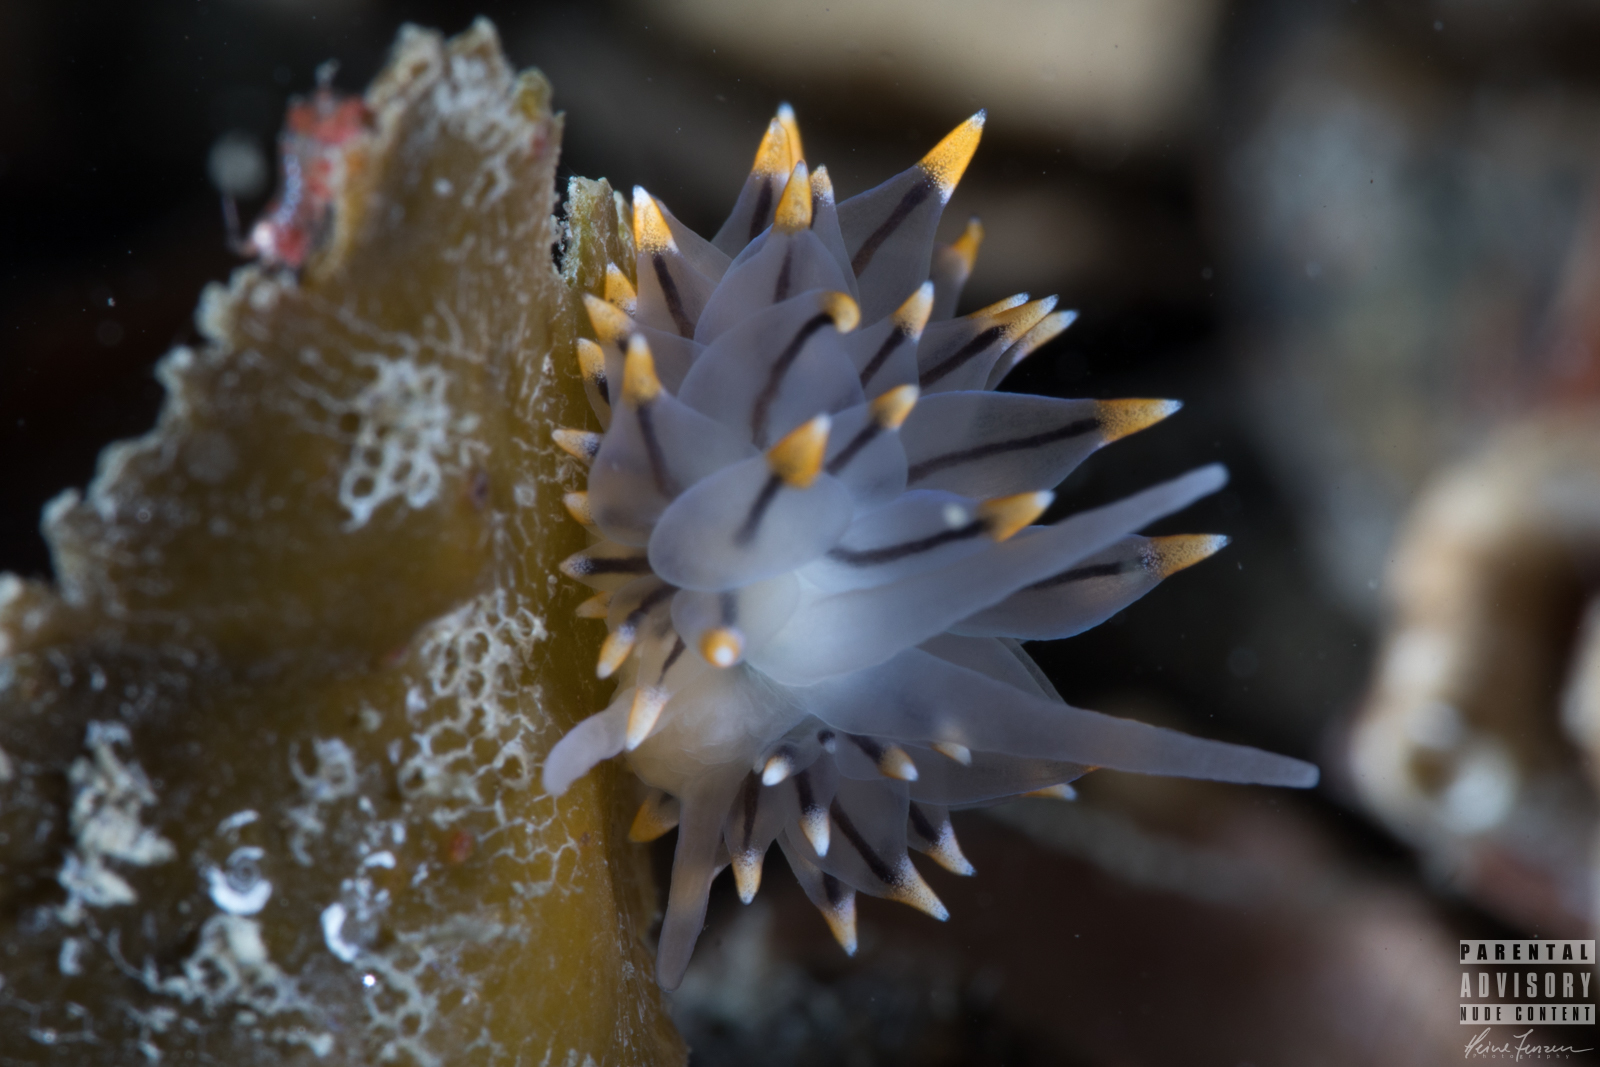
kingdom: Animalia
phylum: Mollusca
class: Gastropoda
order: Nudibranchia
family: Eubranchidae
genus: Eubranchus
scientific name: Eubranchus tricolor
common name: Painted balloon aeolis
